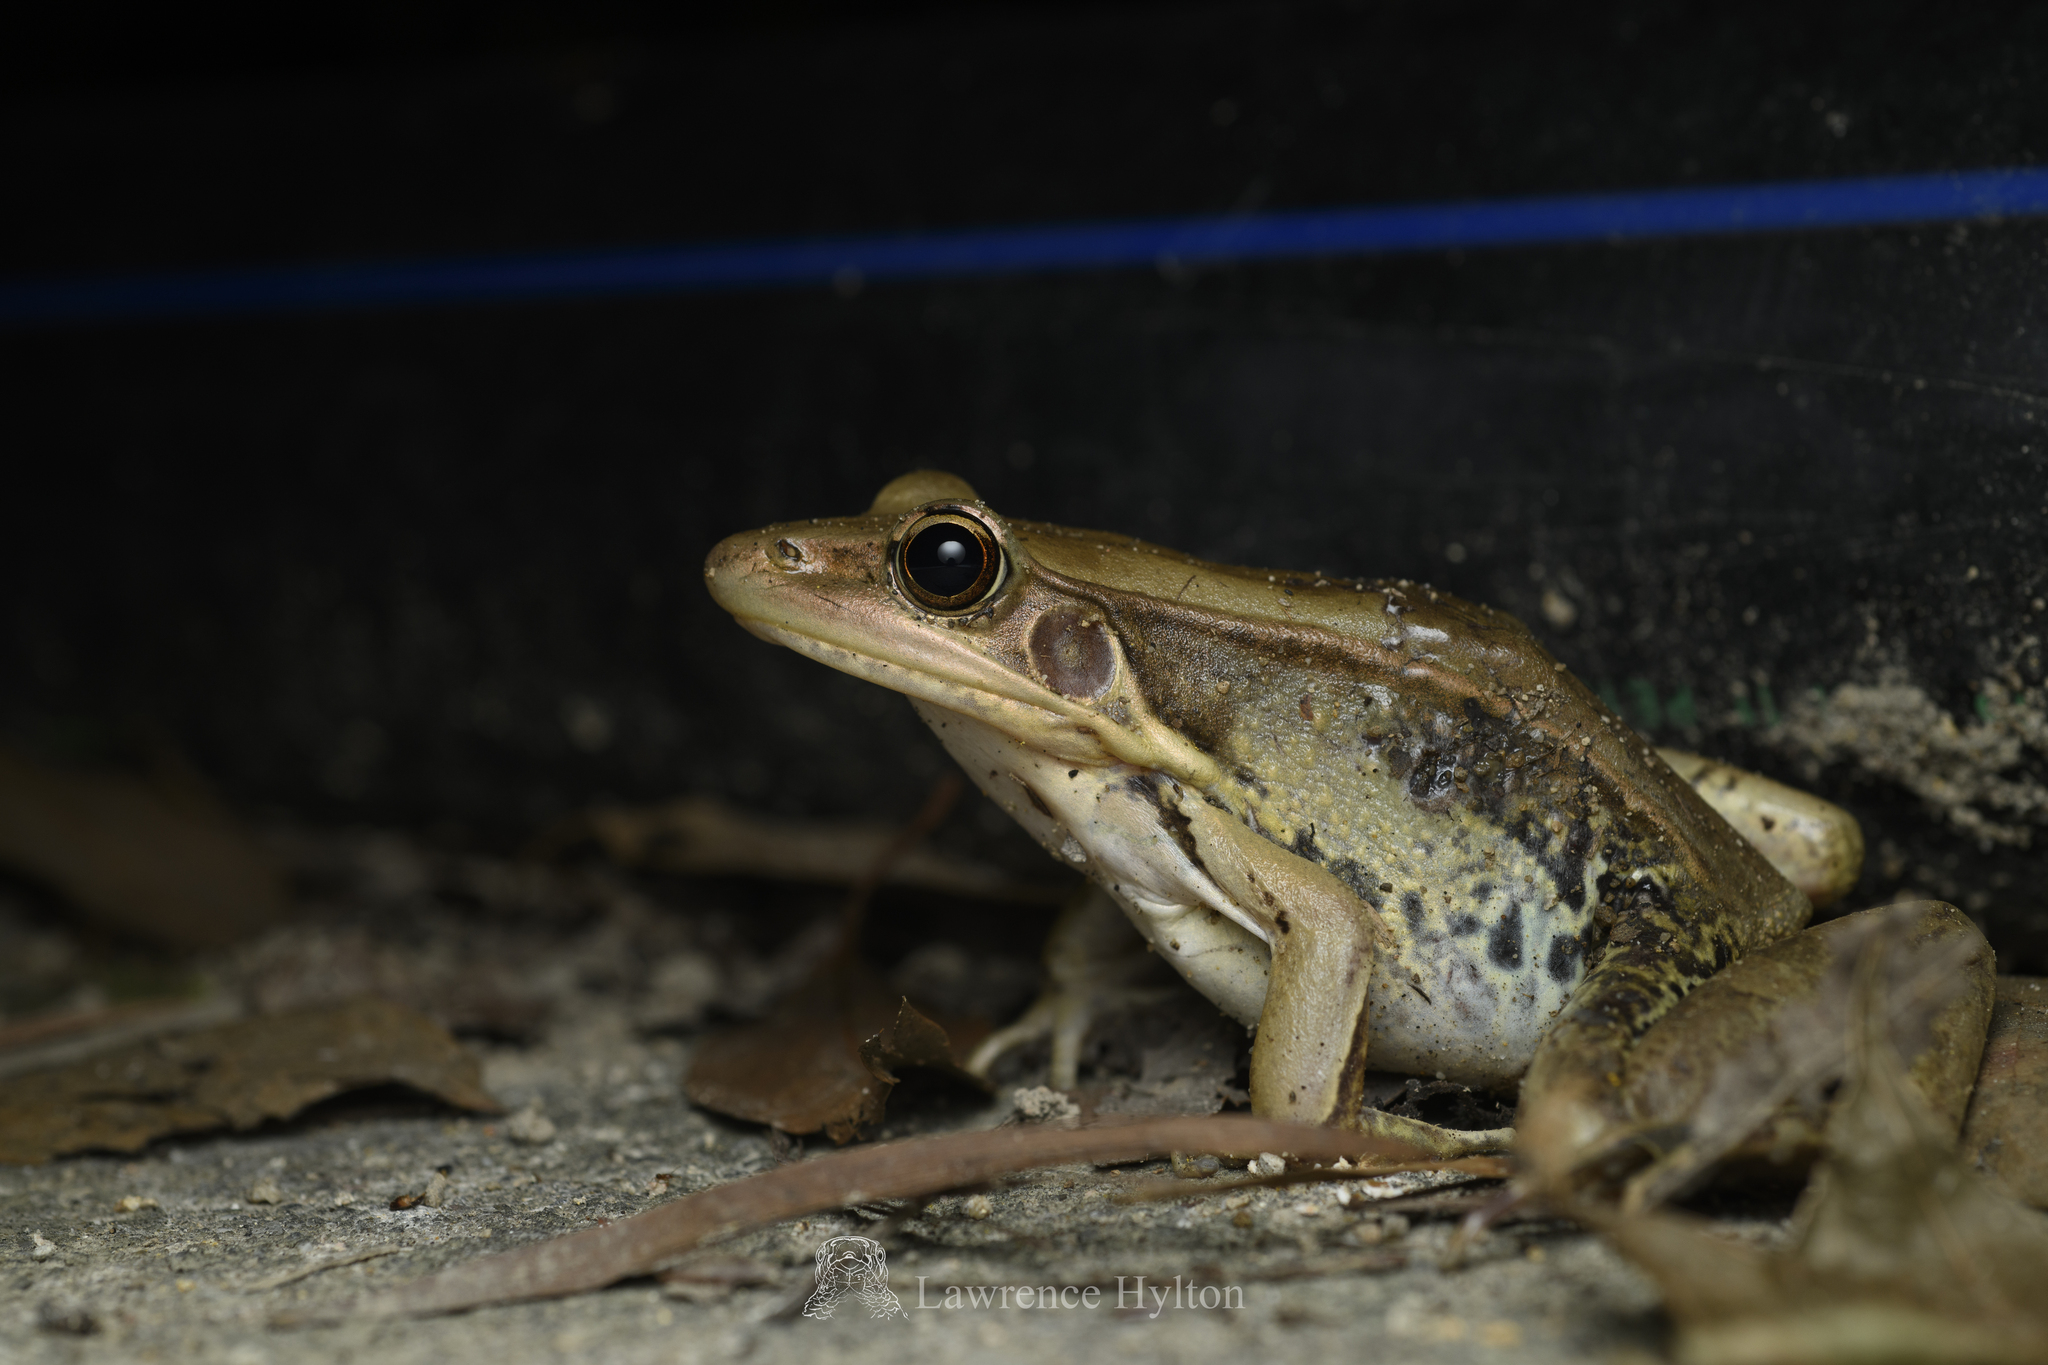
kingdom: Animalia
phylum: Chordata
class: Amphibia
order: Anura
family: Ranidae
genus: Sylvirana
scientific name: Sylvirana guentheri
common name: Guenther's amoy frog
